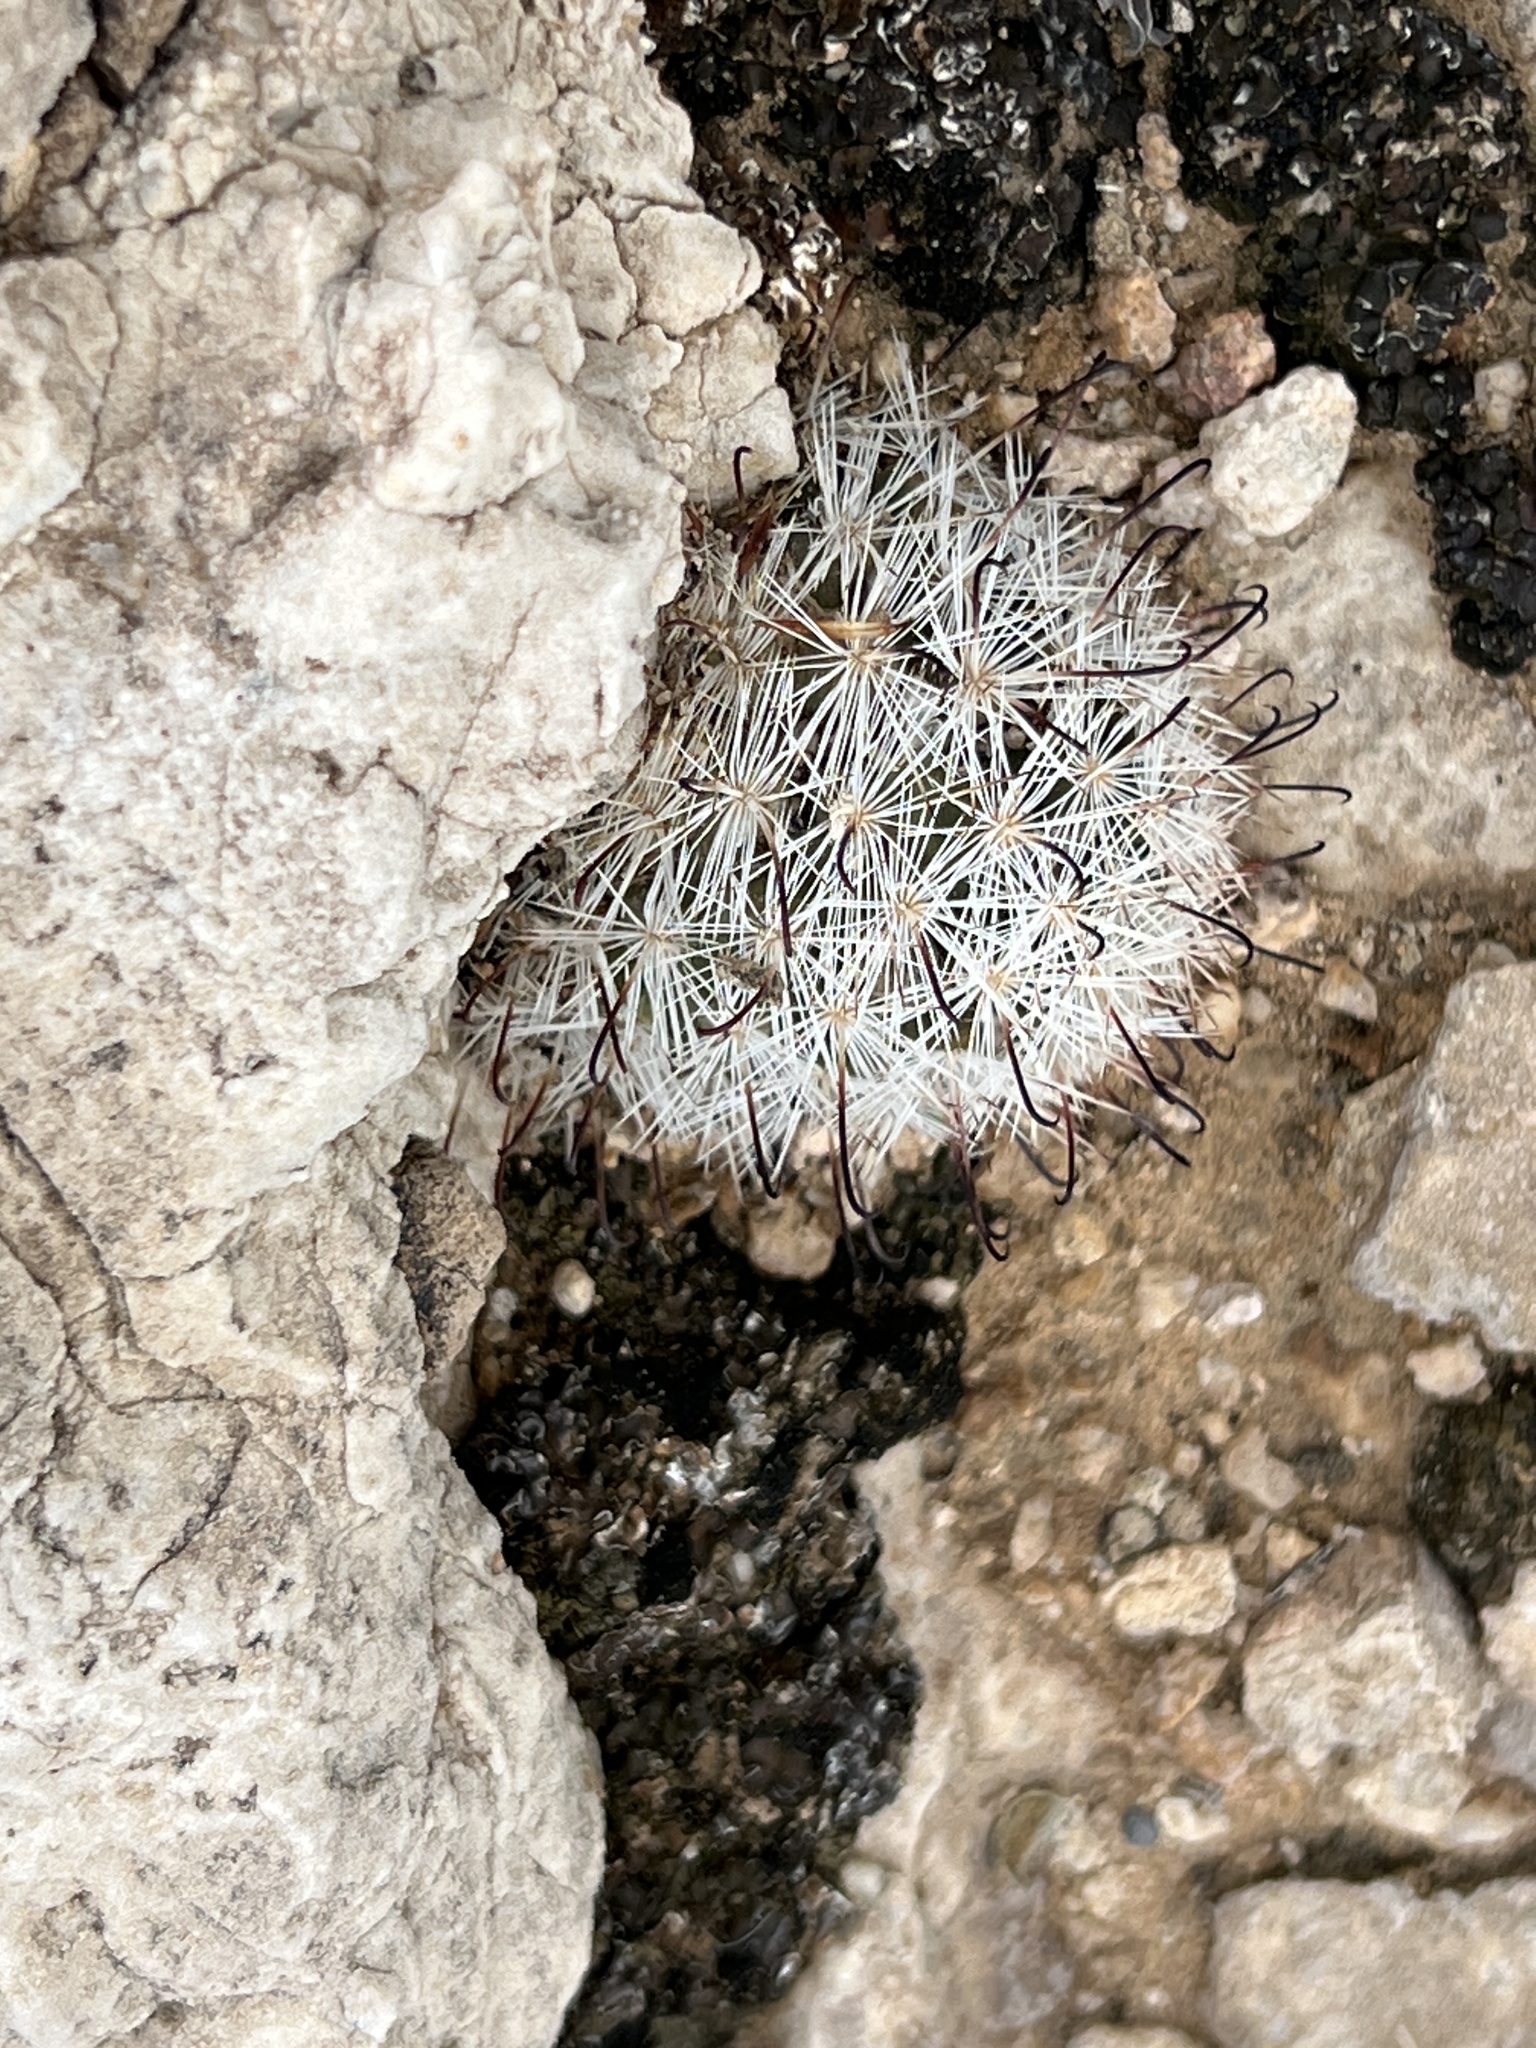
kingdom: Plantae
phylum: Tracheophyta
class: Magnoliopsida
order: Caryophyllales
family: Cactaceae
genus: Cochemiea
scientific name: Cochemiea tetrancistra
